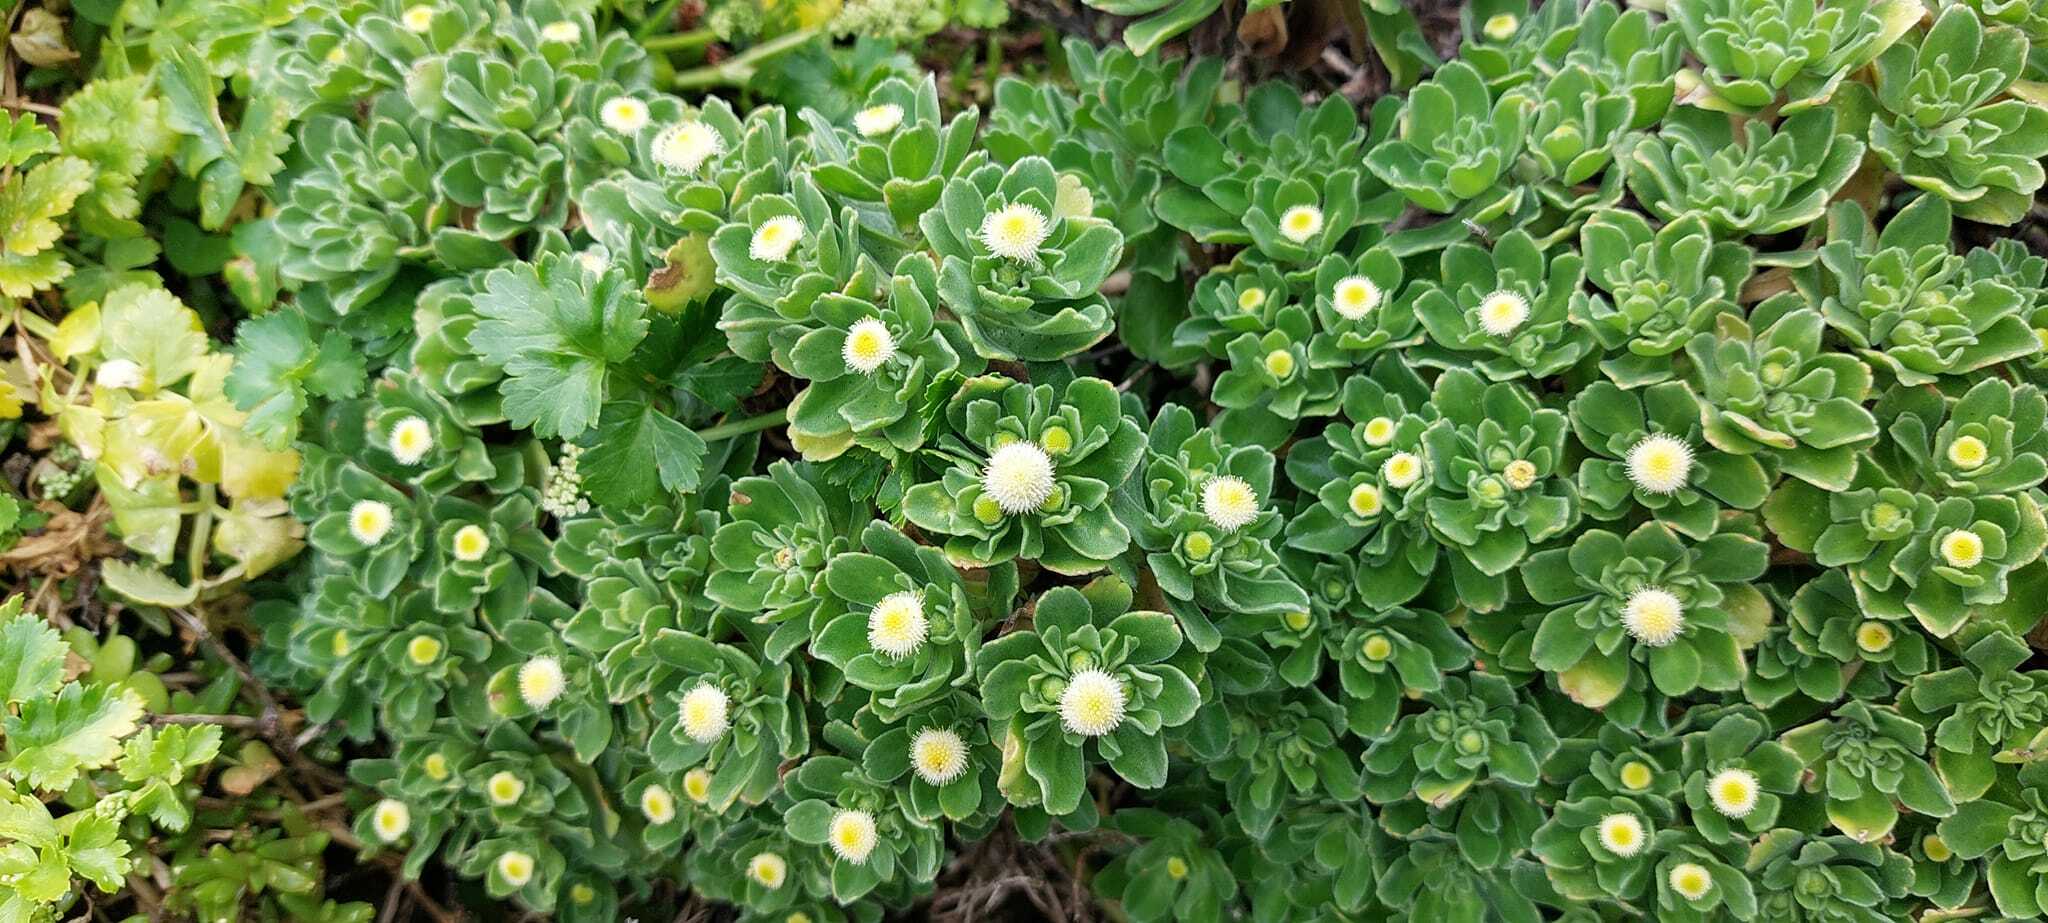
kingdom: Plantae
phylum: Tracheophyta
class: Magnoliopsida
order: Asterales
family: Asteraceae
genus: Leptinella
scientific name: Leptinella featherstonii
